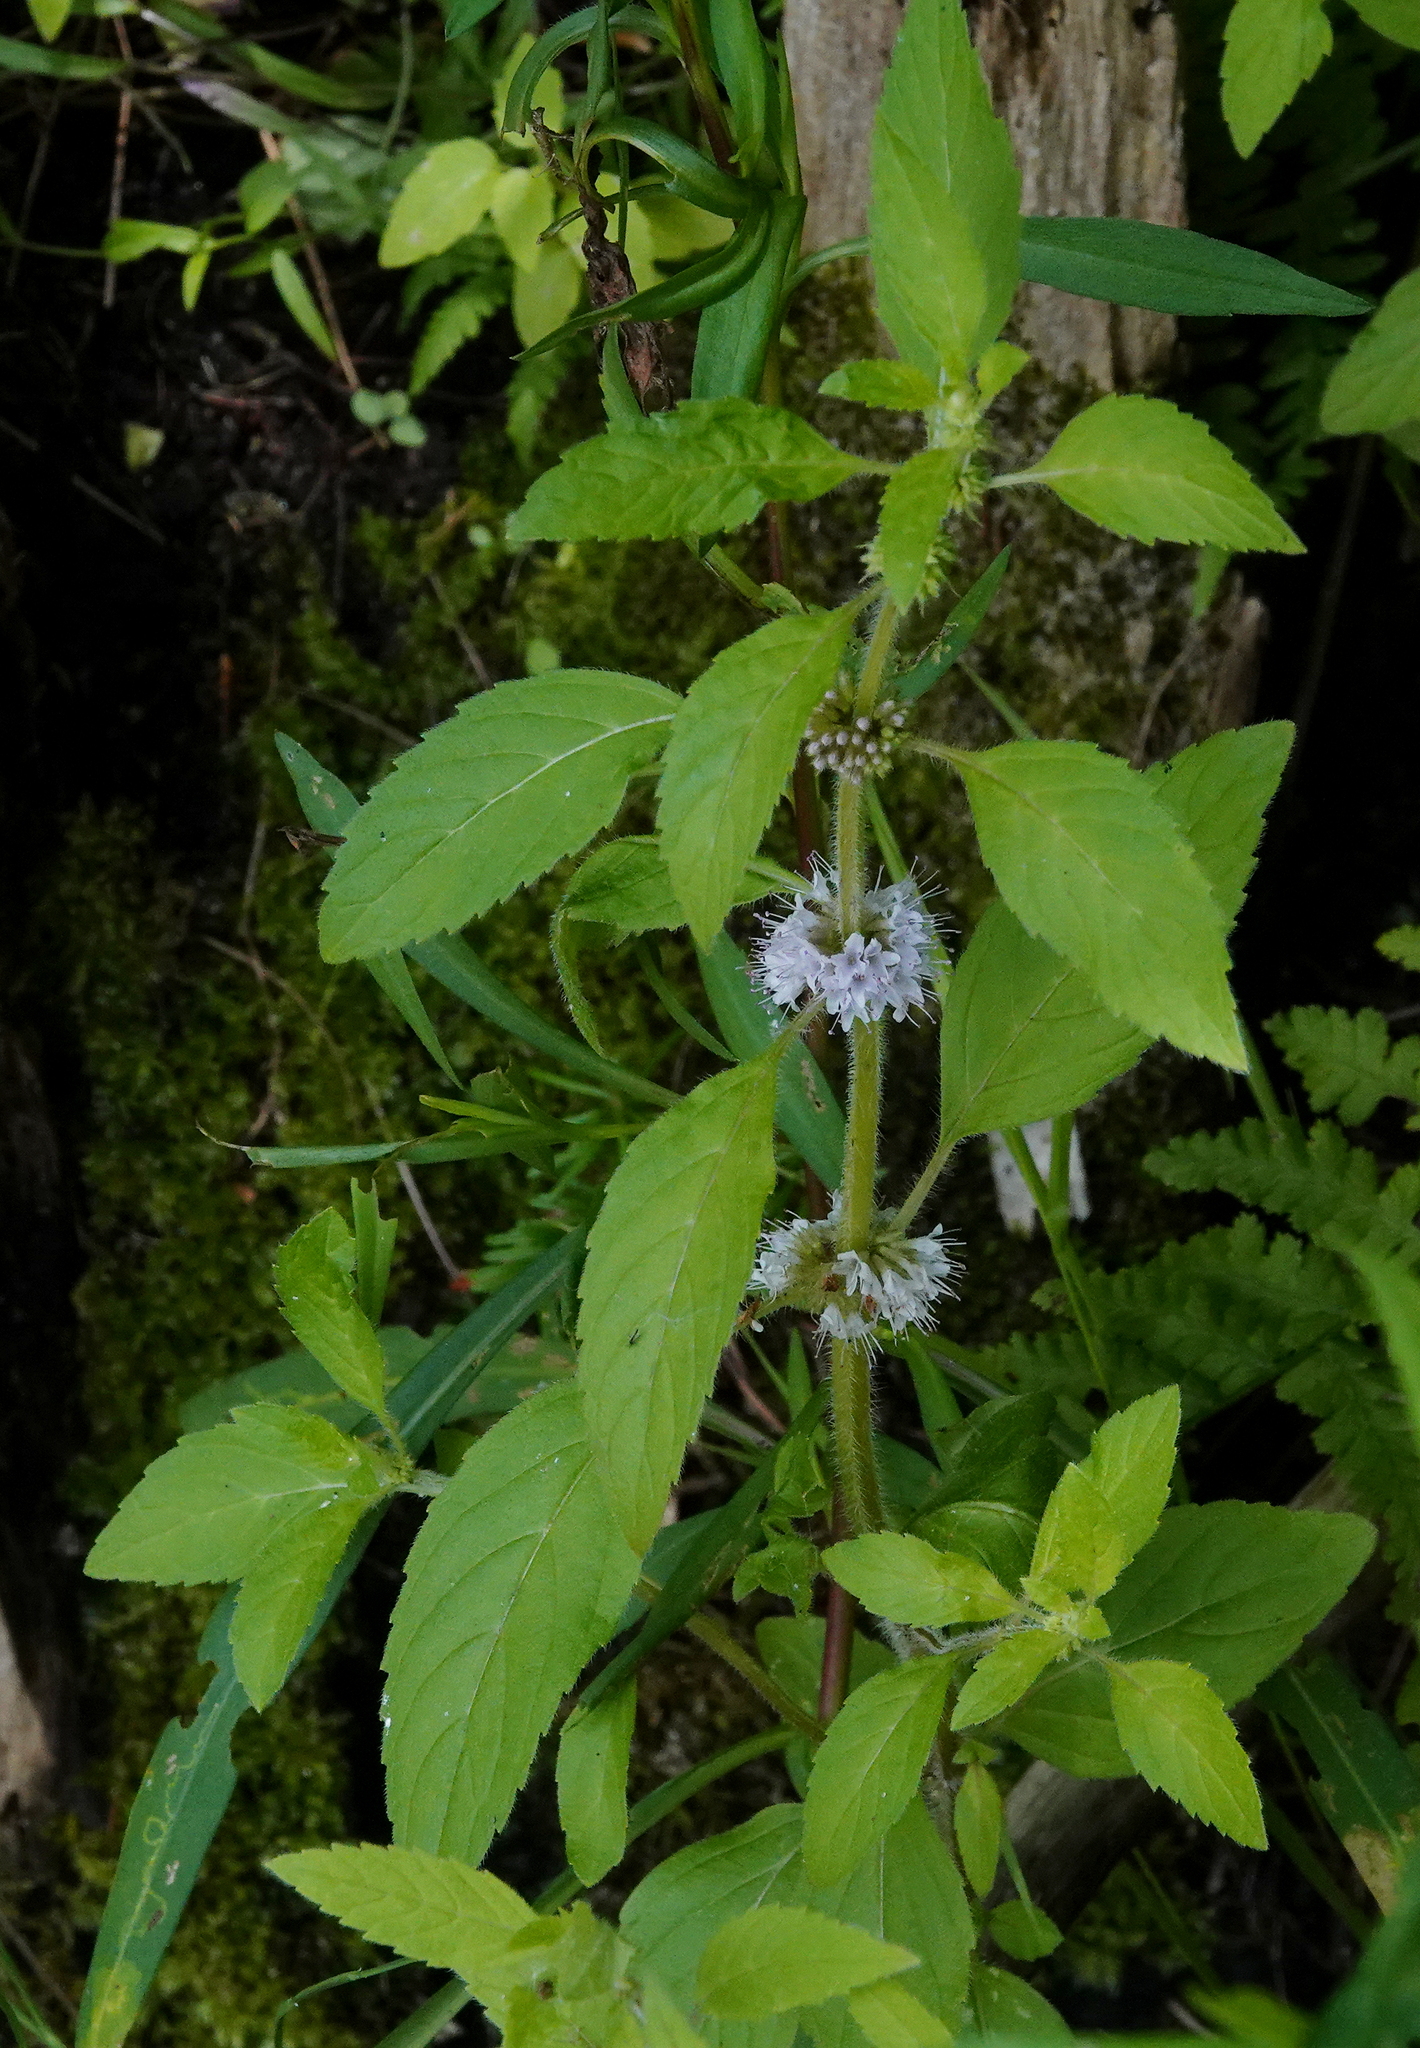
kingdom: Plantae
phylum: Tracheophyta
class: Magnoliopsida
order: Lamiales
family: Lamiaceae
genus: Mentha
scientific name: Mentha canadensis
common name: American corn mint
